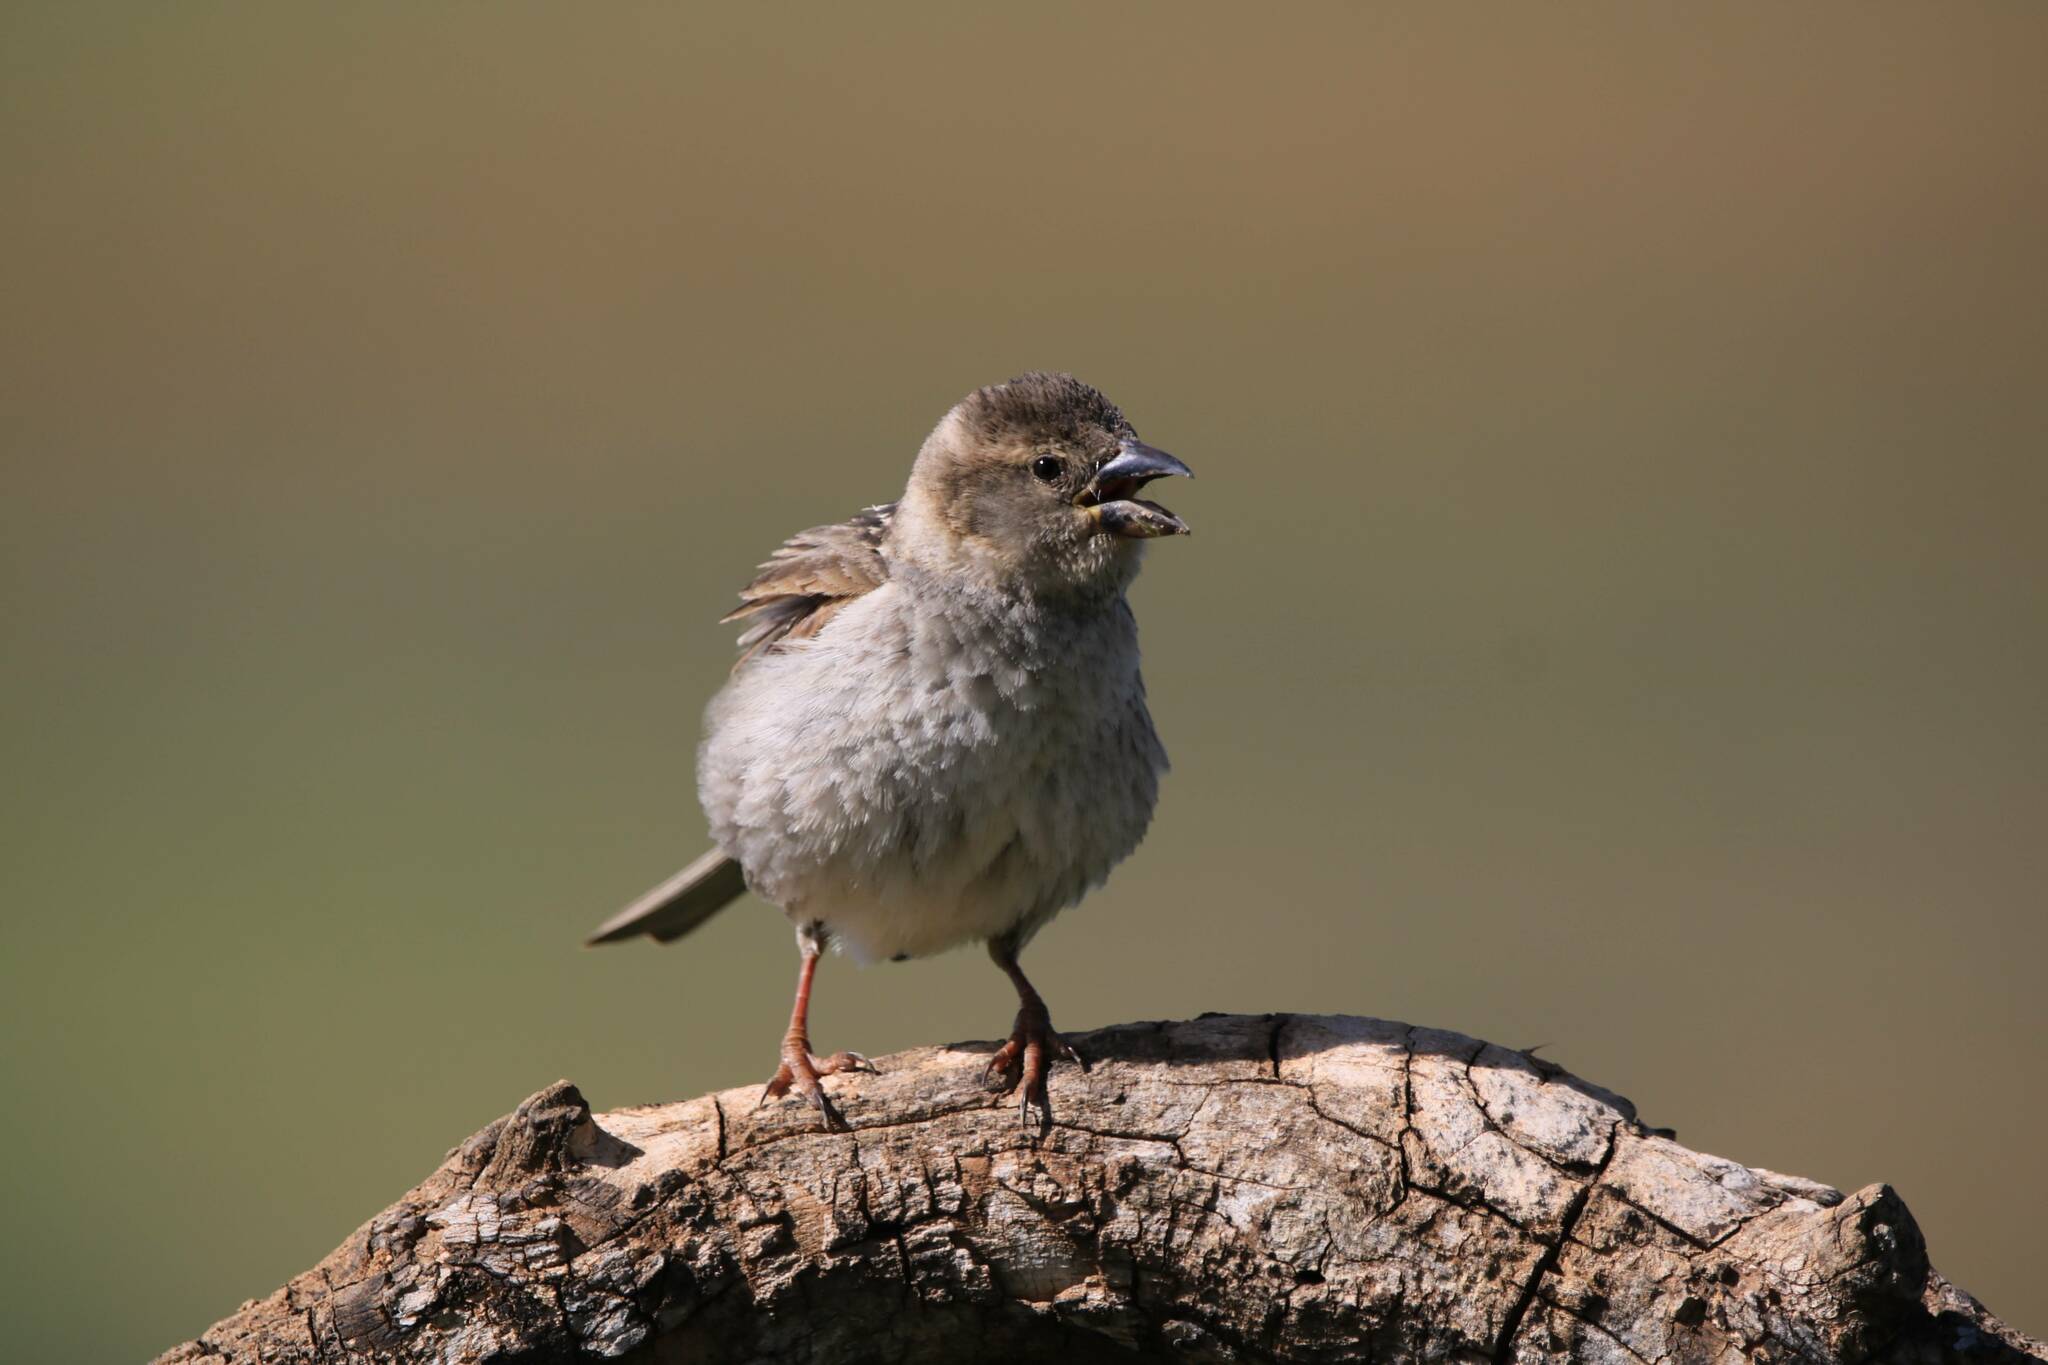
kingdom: Animalia
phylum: Chordata
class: Aves
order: Passeriformes
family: Passeridae
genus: Passer
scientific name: Passer hispaniolensis
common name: Spanish sparrow
